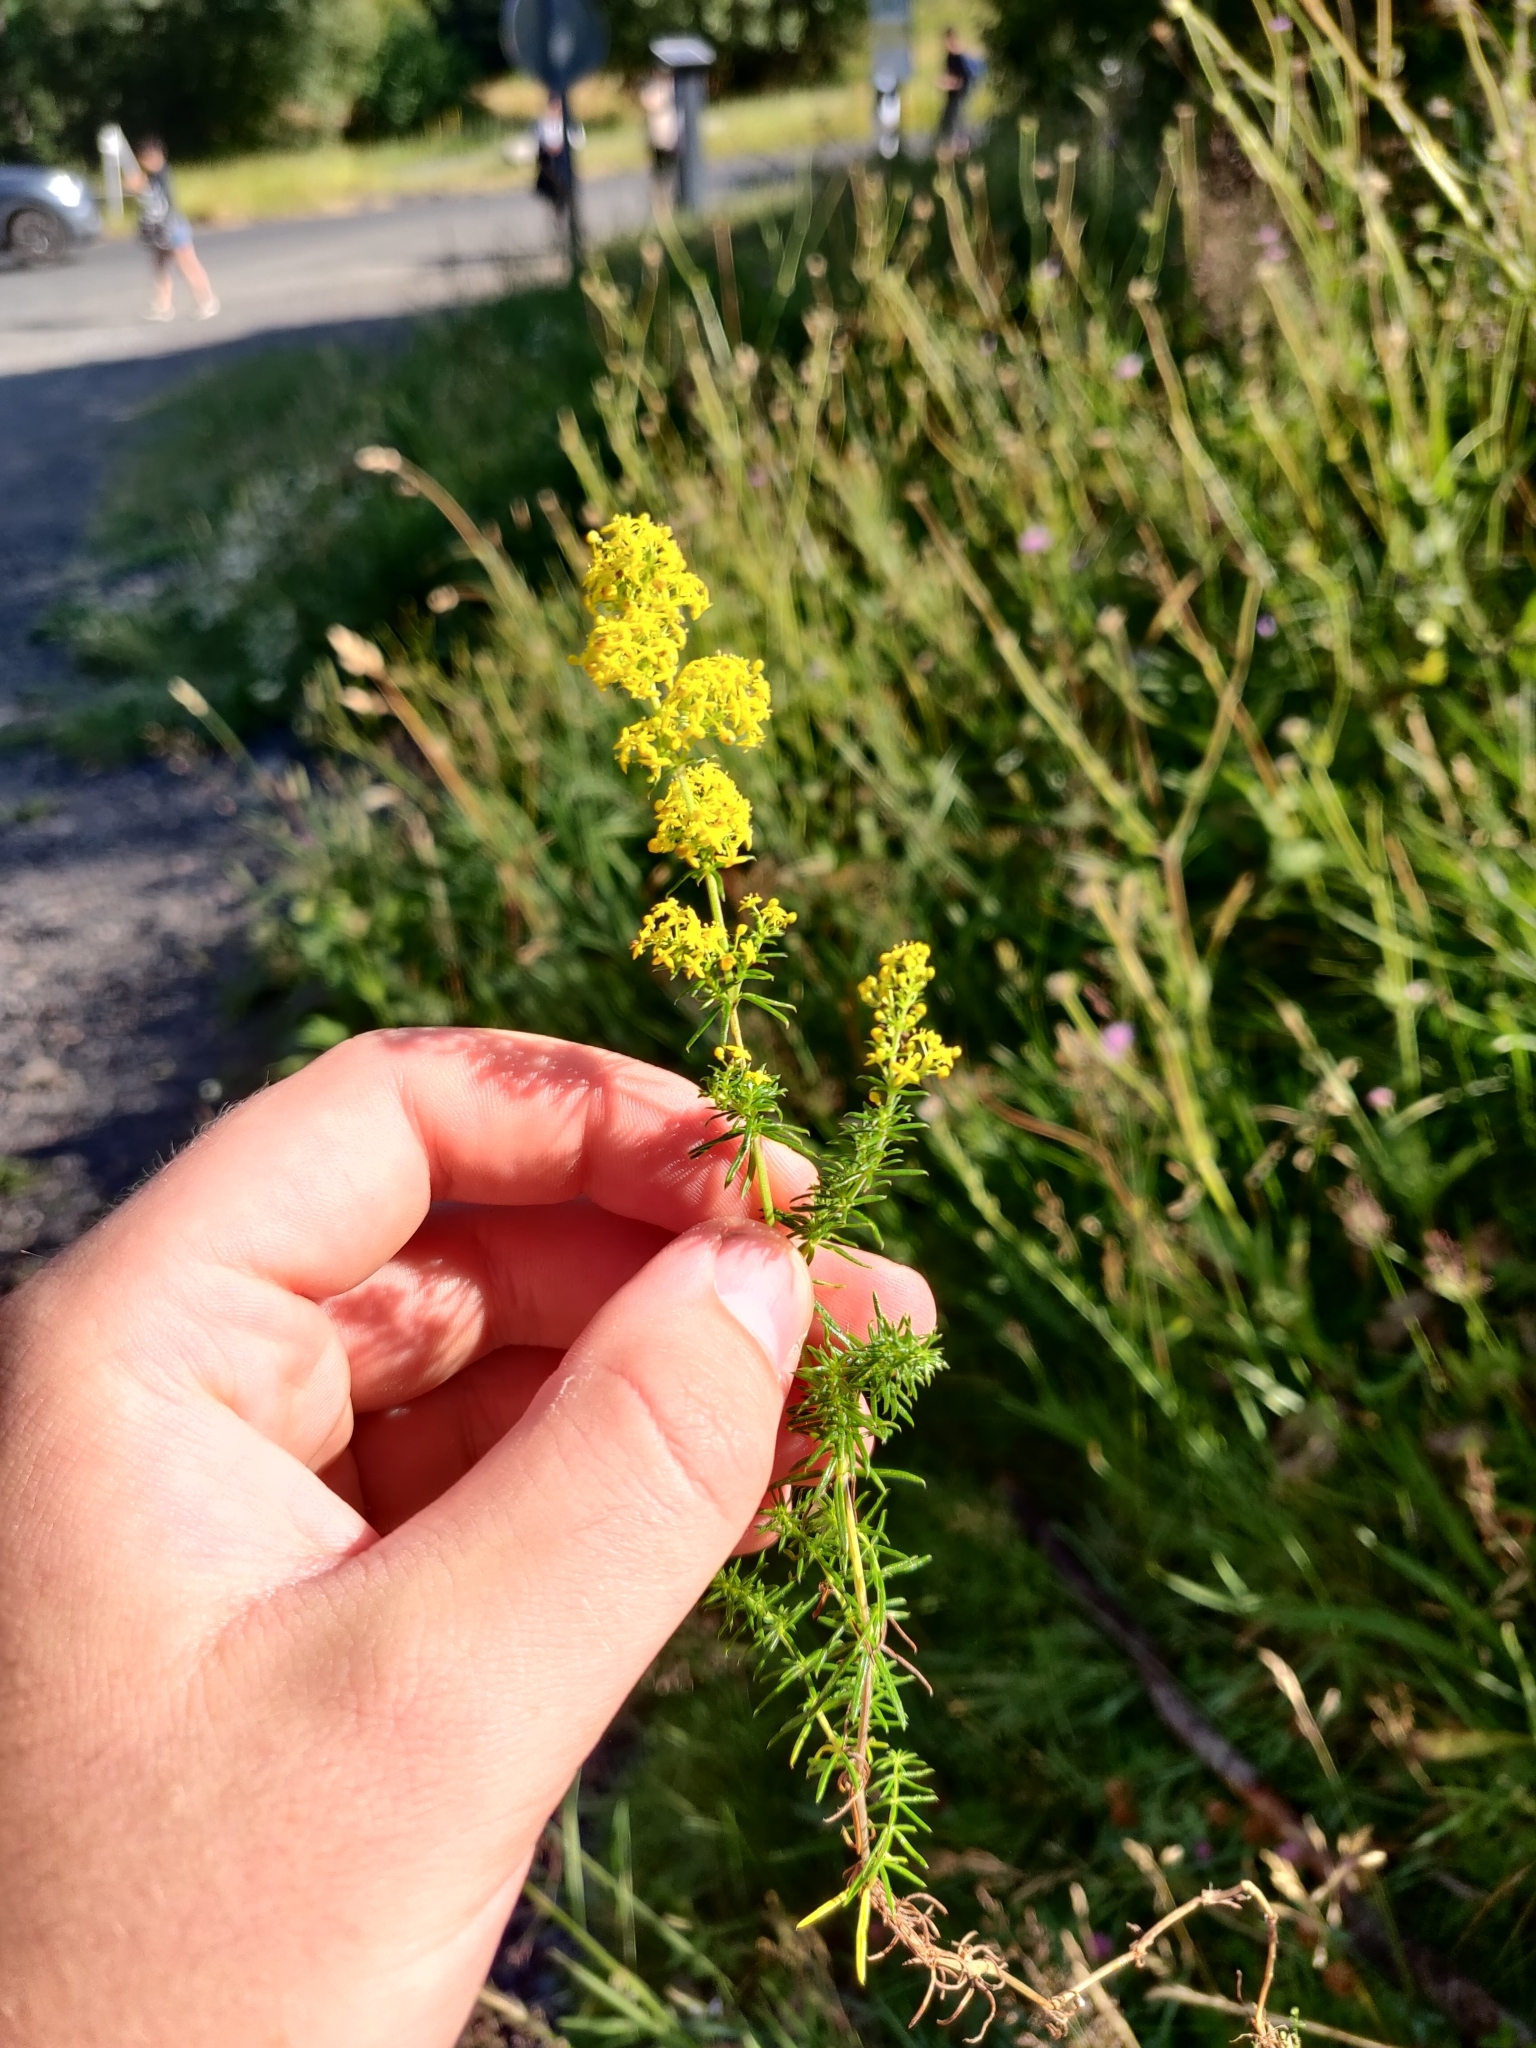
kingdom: Plantae
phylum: Tracheophyta
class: Magnoliopsida
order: Gentianales
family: Rubiaceae
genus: Galium
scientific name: Galium verum
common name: Lady's bedstraw
